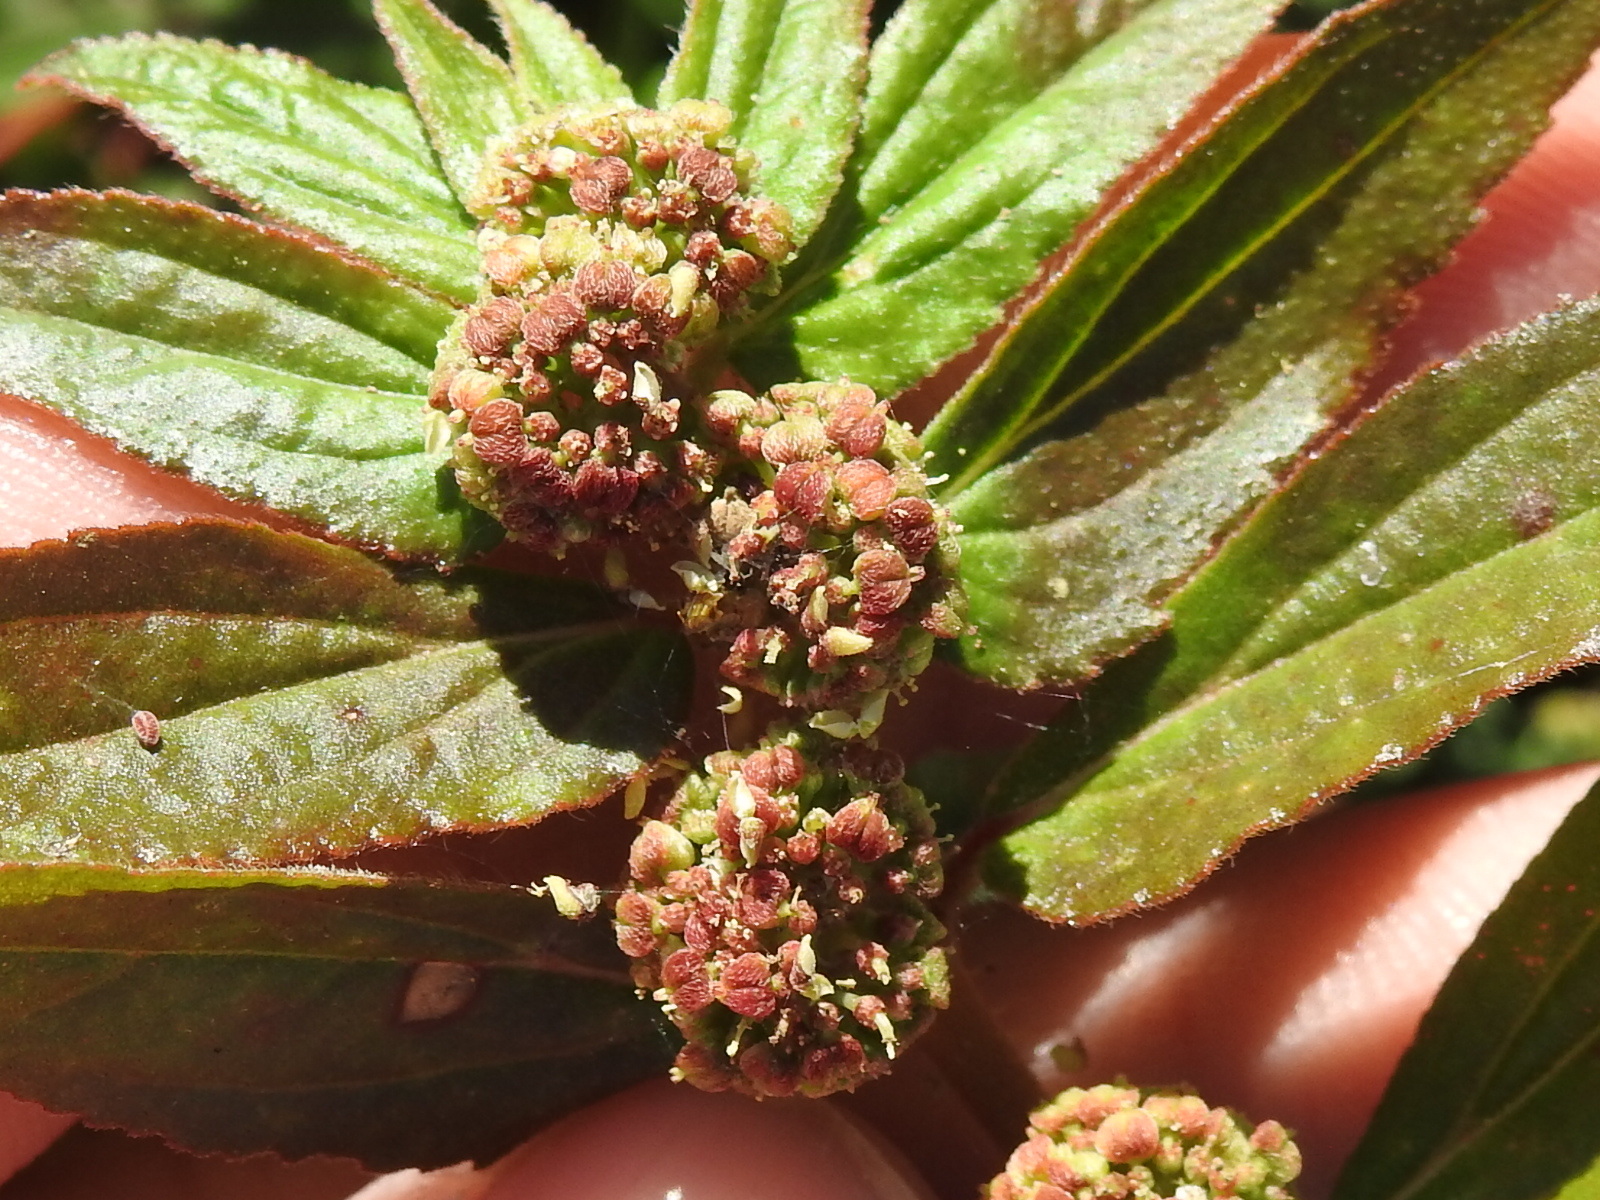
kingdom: Plantae
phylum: Tracheophyta
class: Magnoliopsida
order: Malpighiales
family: Euphorbiaceae
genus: Euphorbia
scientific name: Euphorbia hirta
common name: Pillpod sandmat
